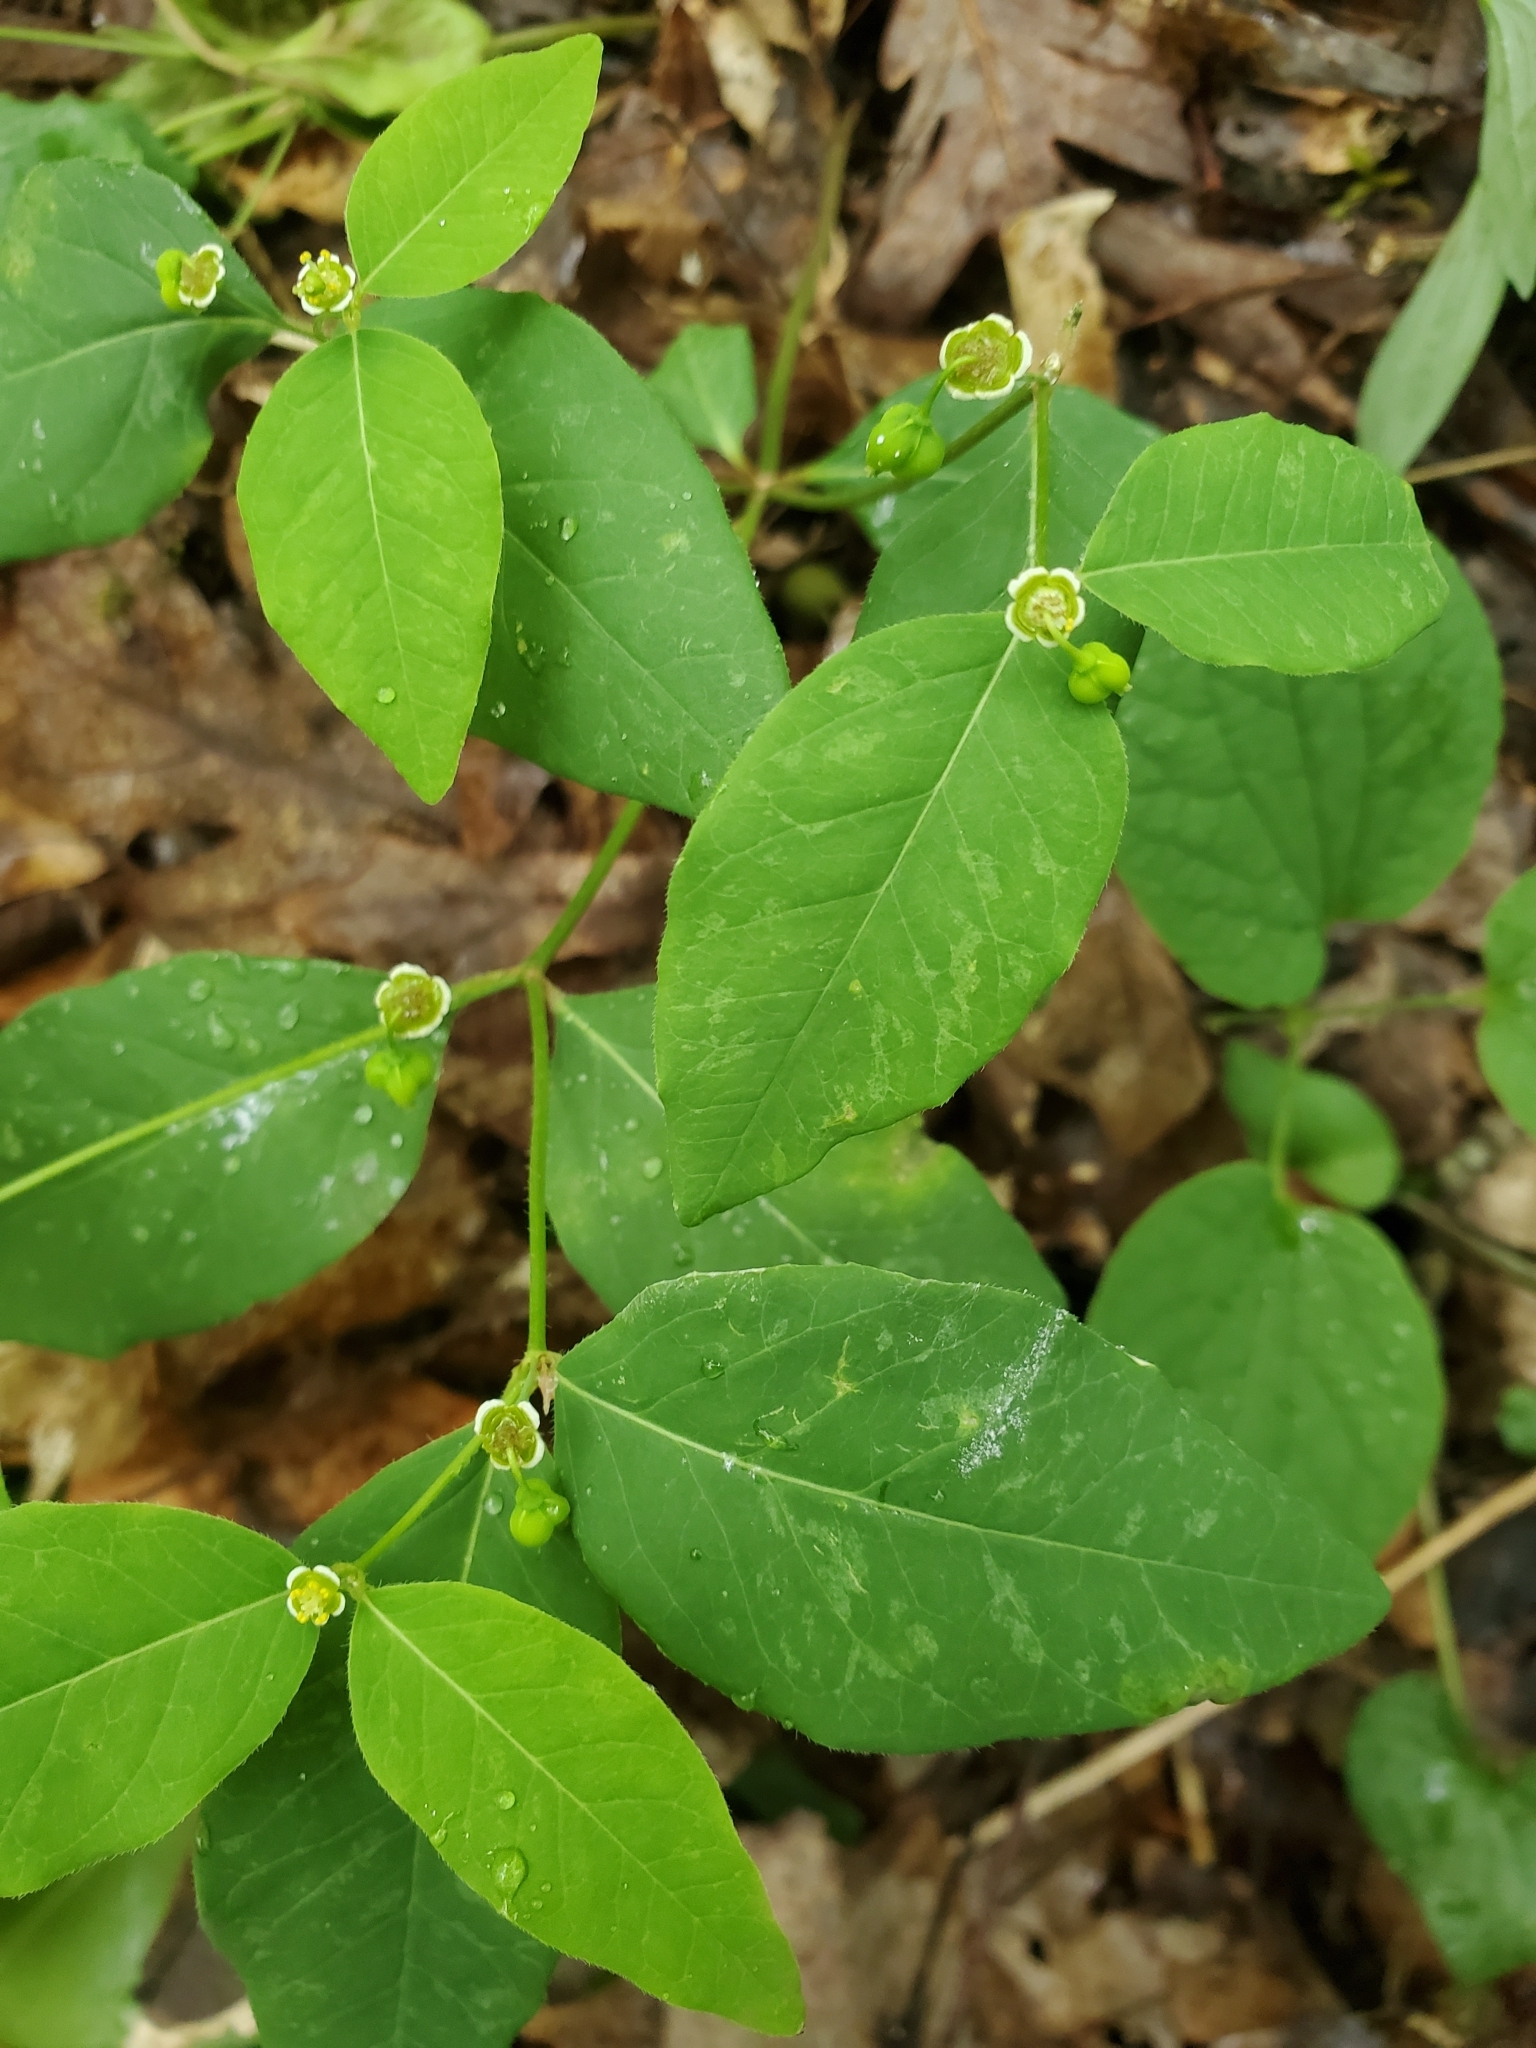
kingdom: Plantae
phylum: Tracheophyta
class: Magnoliopsida
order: Malpighiales
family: Euphorbiaceae
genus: Euphorbia
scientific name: Euphorbia mercurialina
